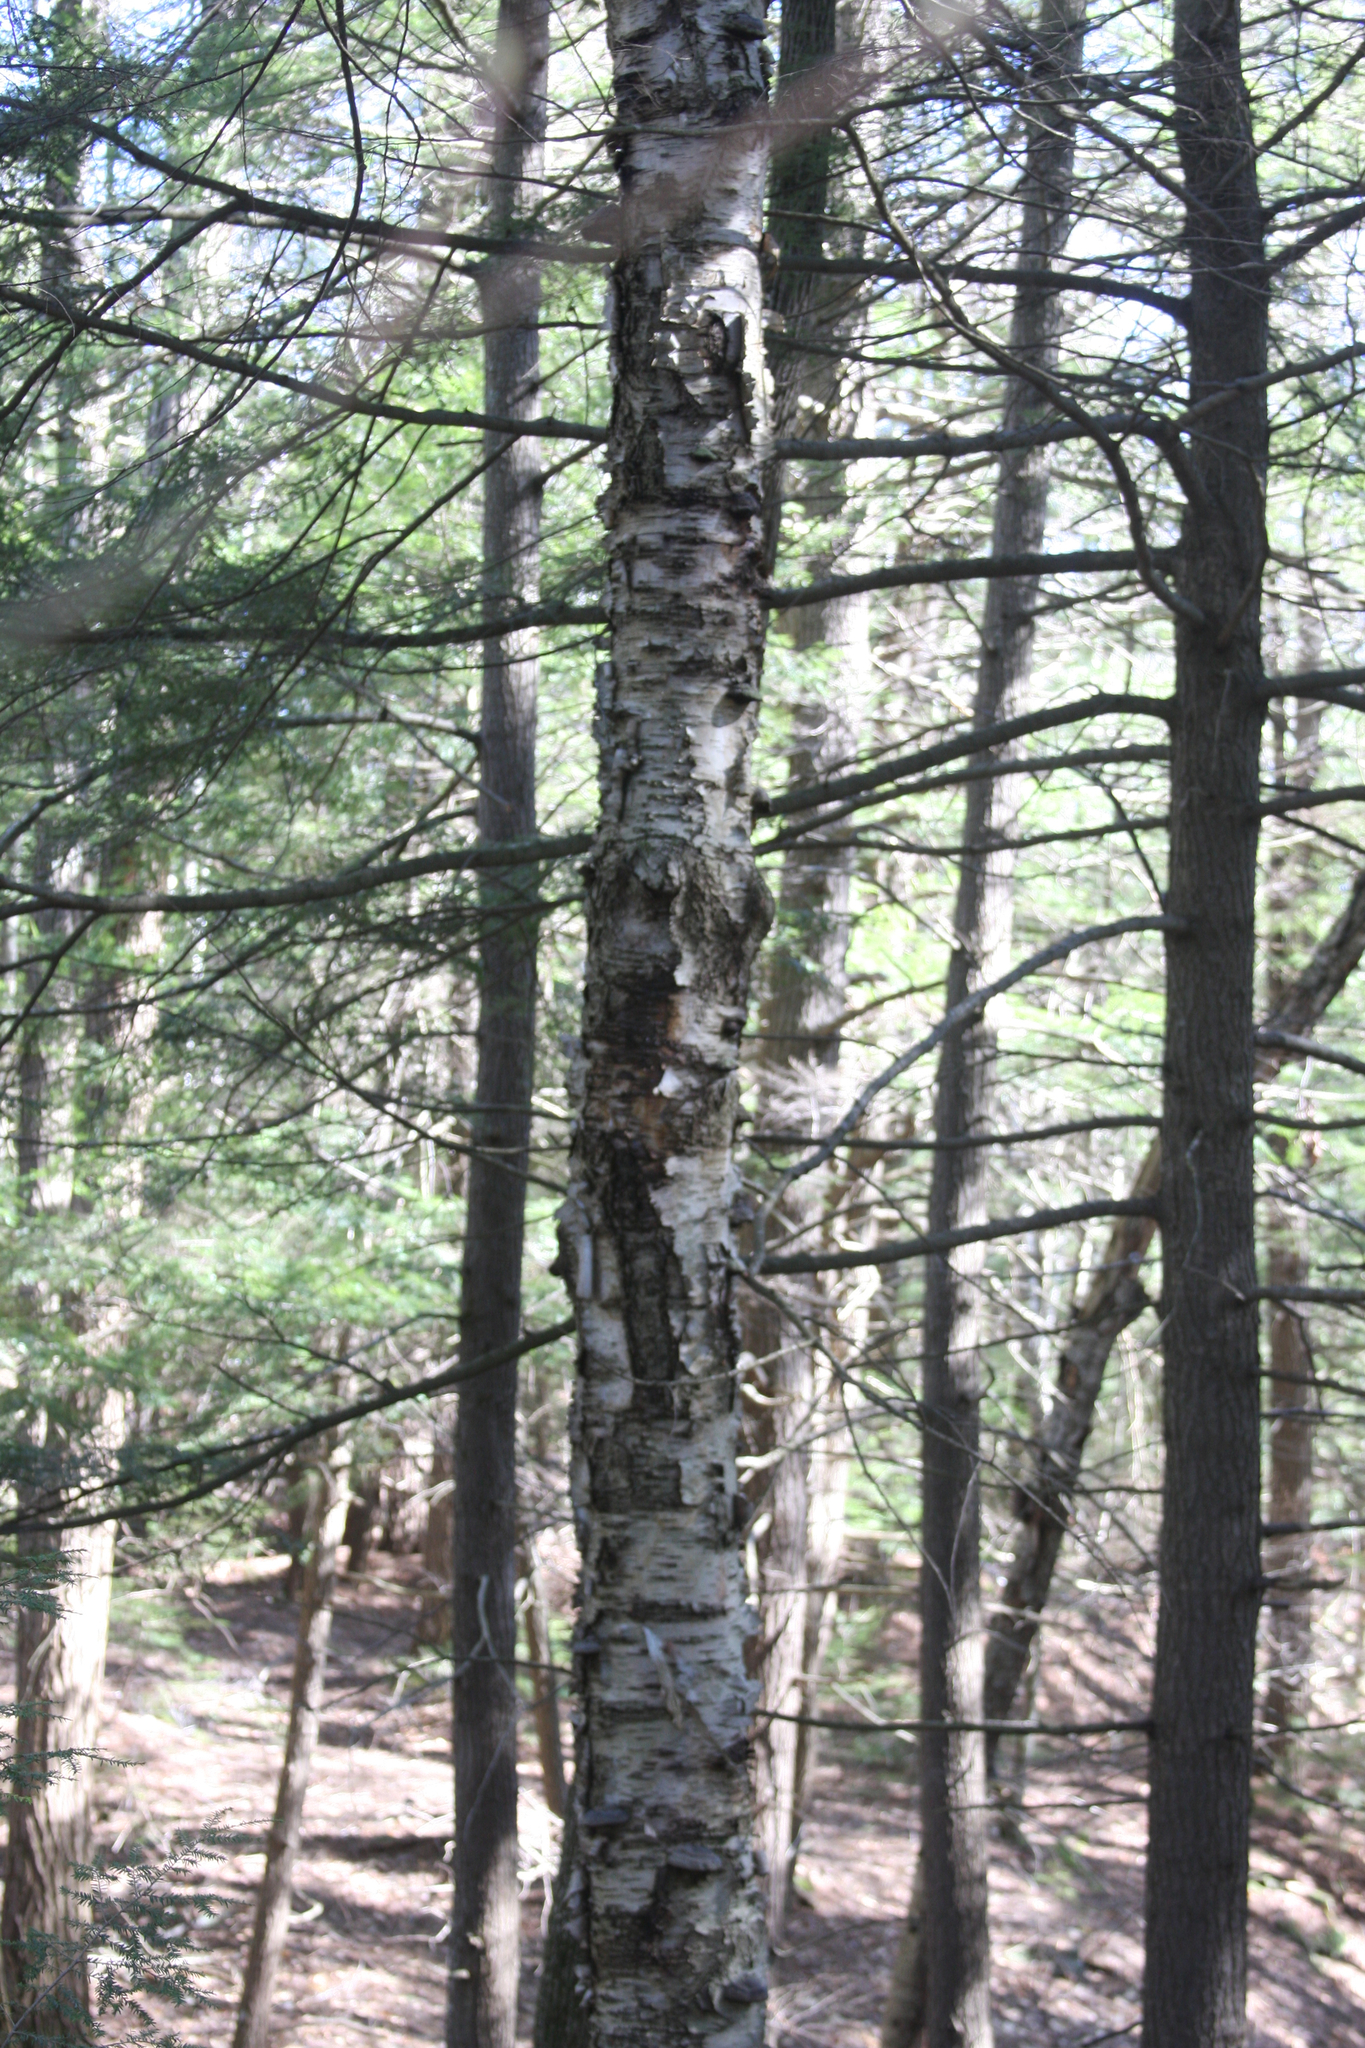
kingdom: Plantae
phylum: Tracheophyta
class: Magnoliopsida
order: Fagales
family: Betulaceae
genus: Betula
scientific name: Betula alleghaniensis
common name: Yellow birch
